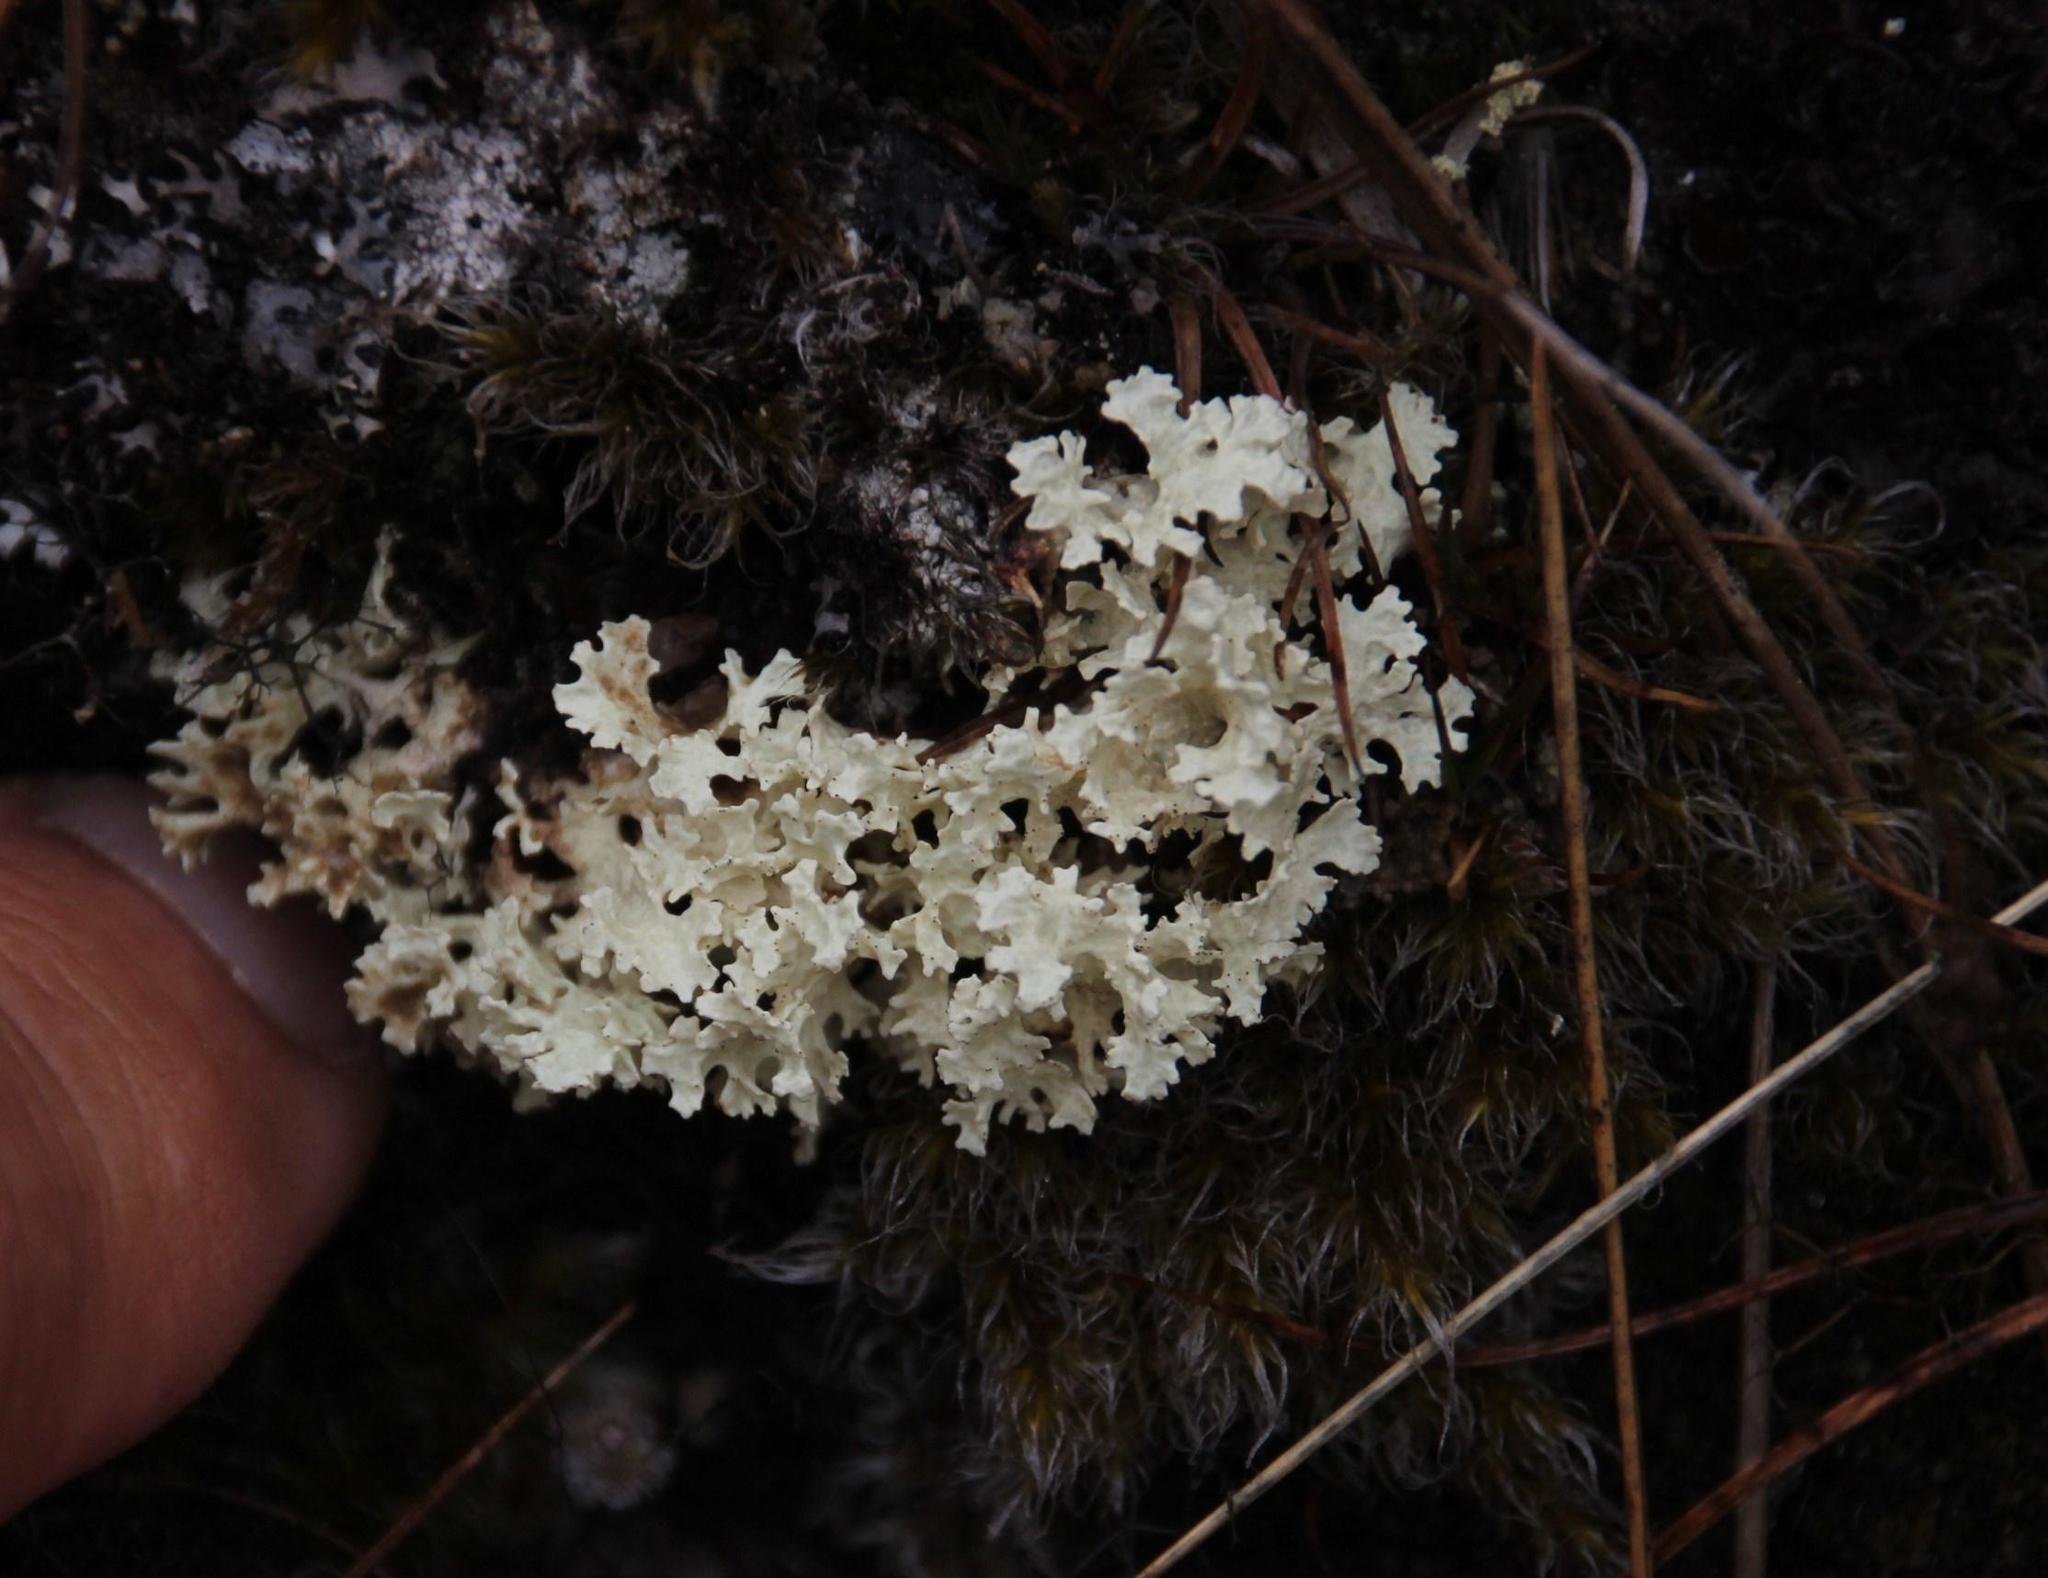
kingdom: Fungi
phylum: Ascomycota
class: Lecanoromycetes
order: Lecanorales
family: Parmeliaceae
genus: Nephromopsis
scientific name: Nephromopsis nivalis
